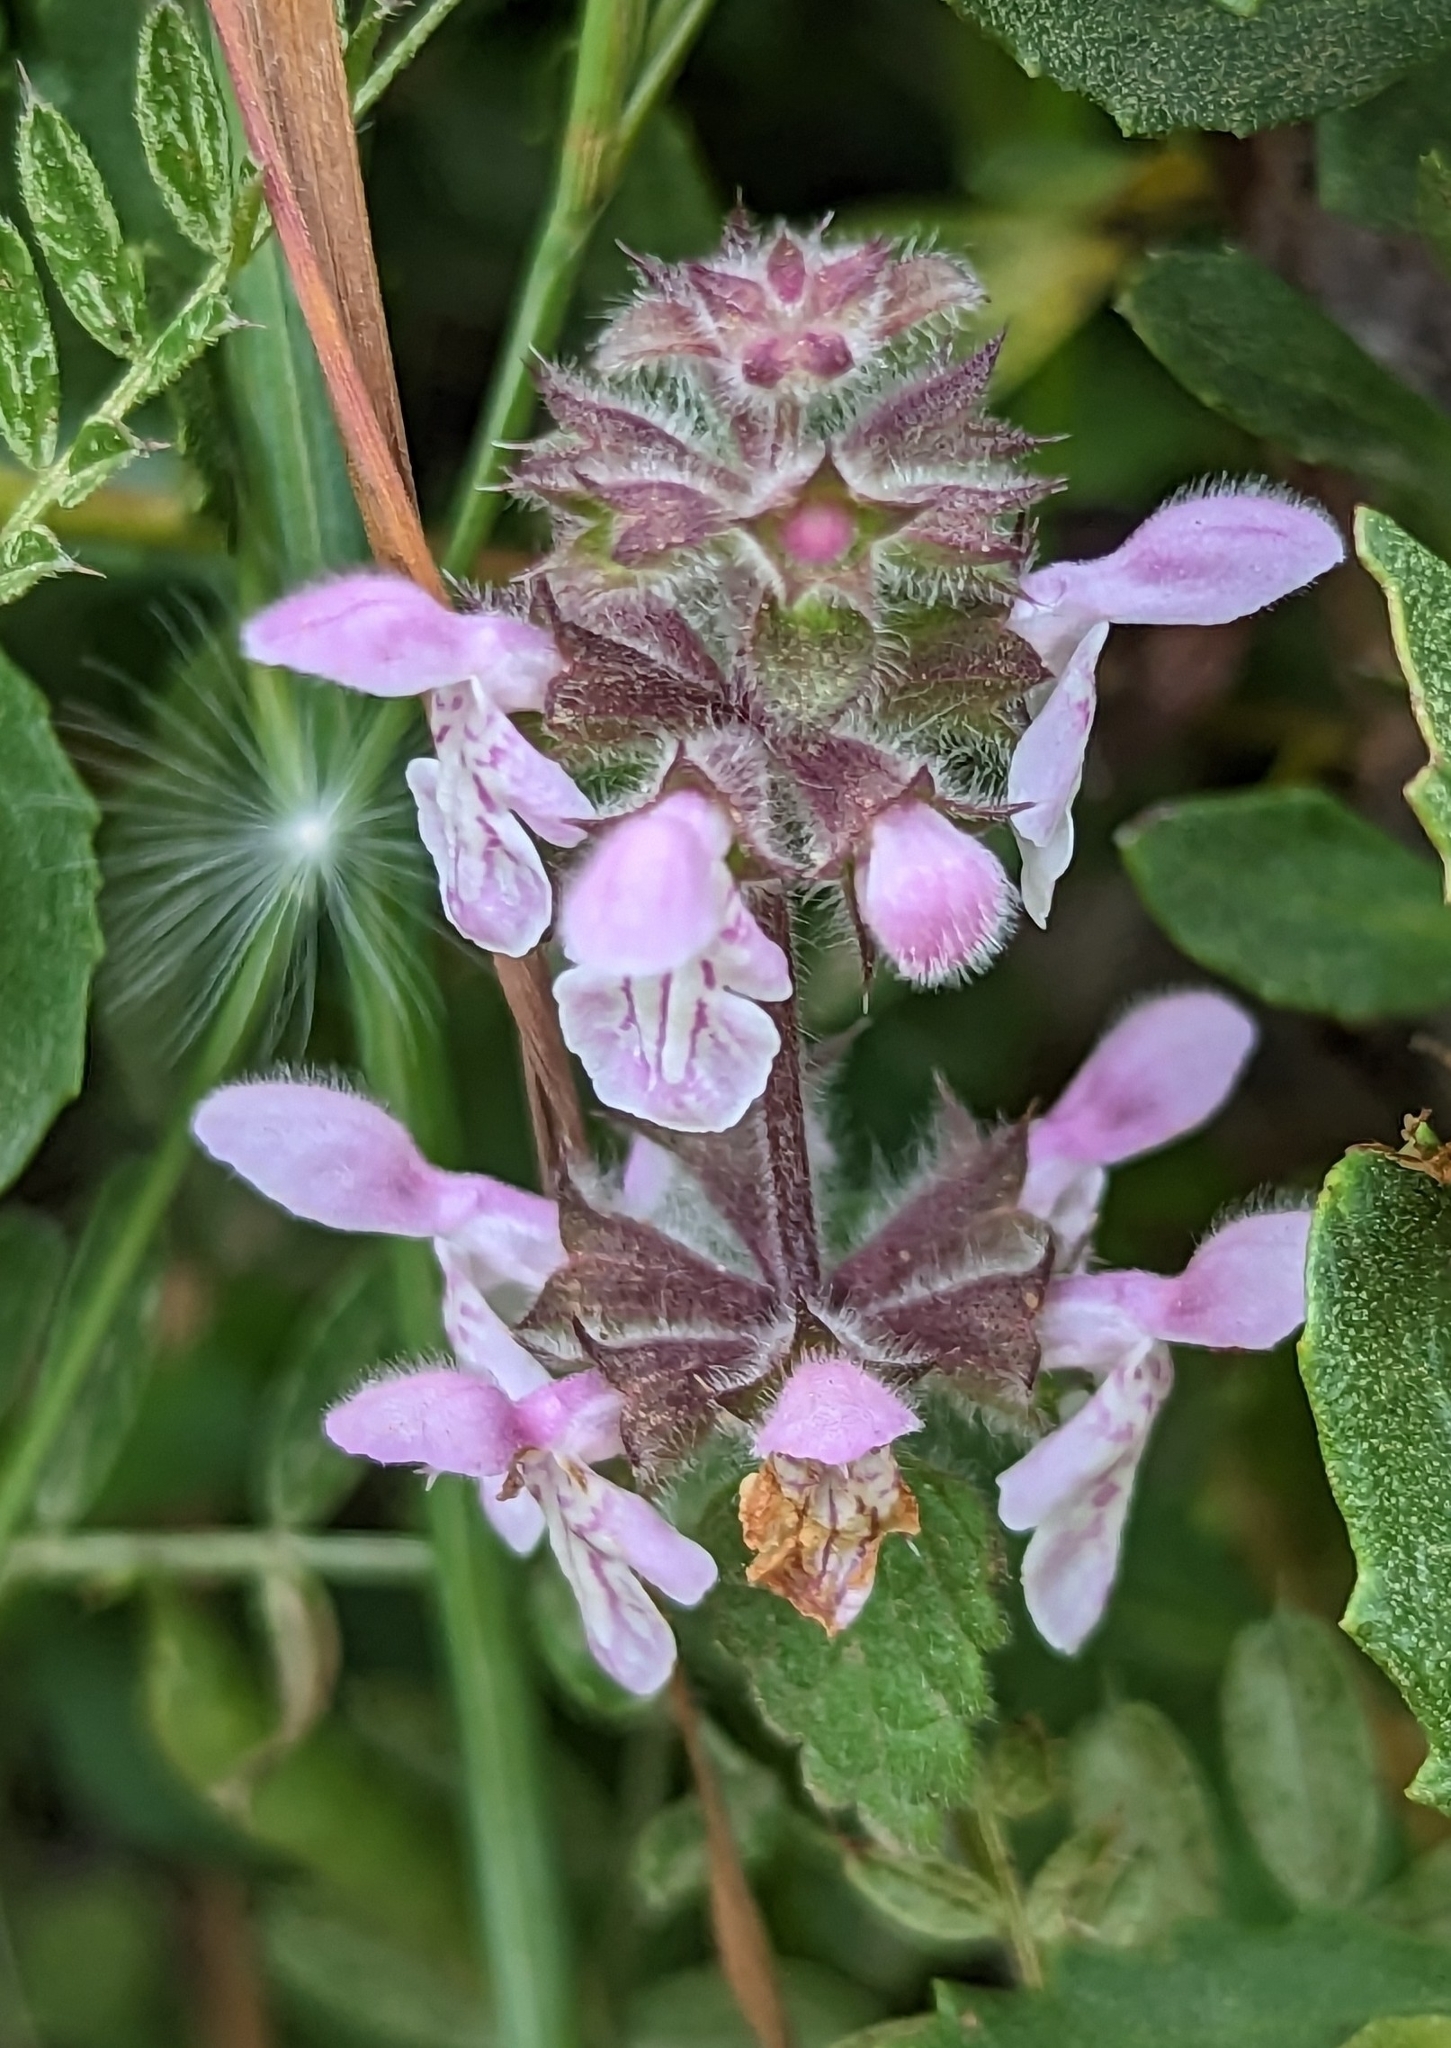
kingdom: Plantae
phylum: Tracheophyta
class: Magnoliopsida
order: Lamiales
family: Lamiaceae
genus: Stachys
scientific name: Stachys rigida
